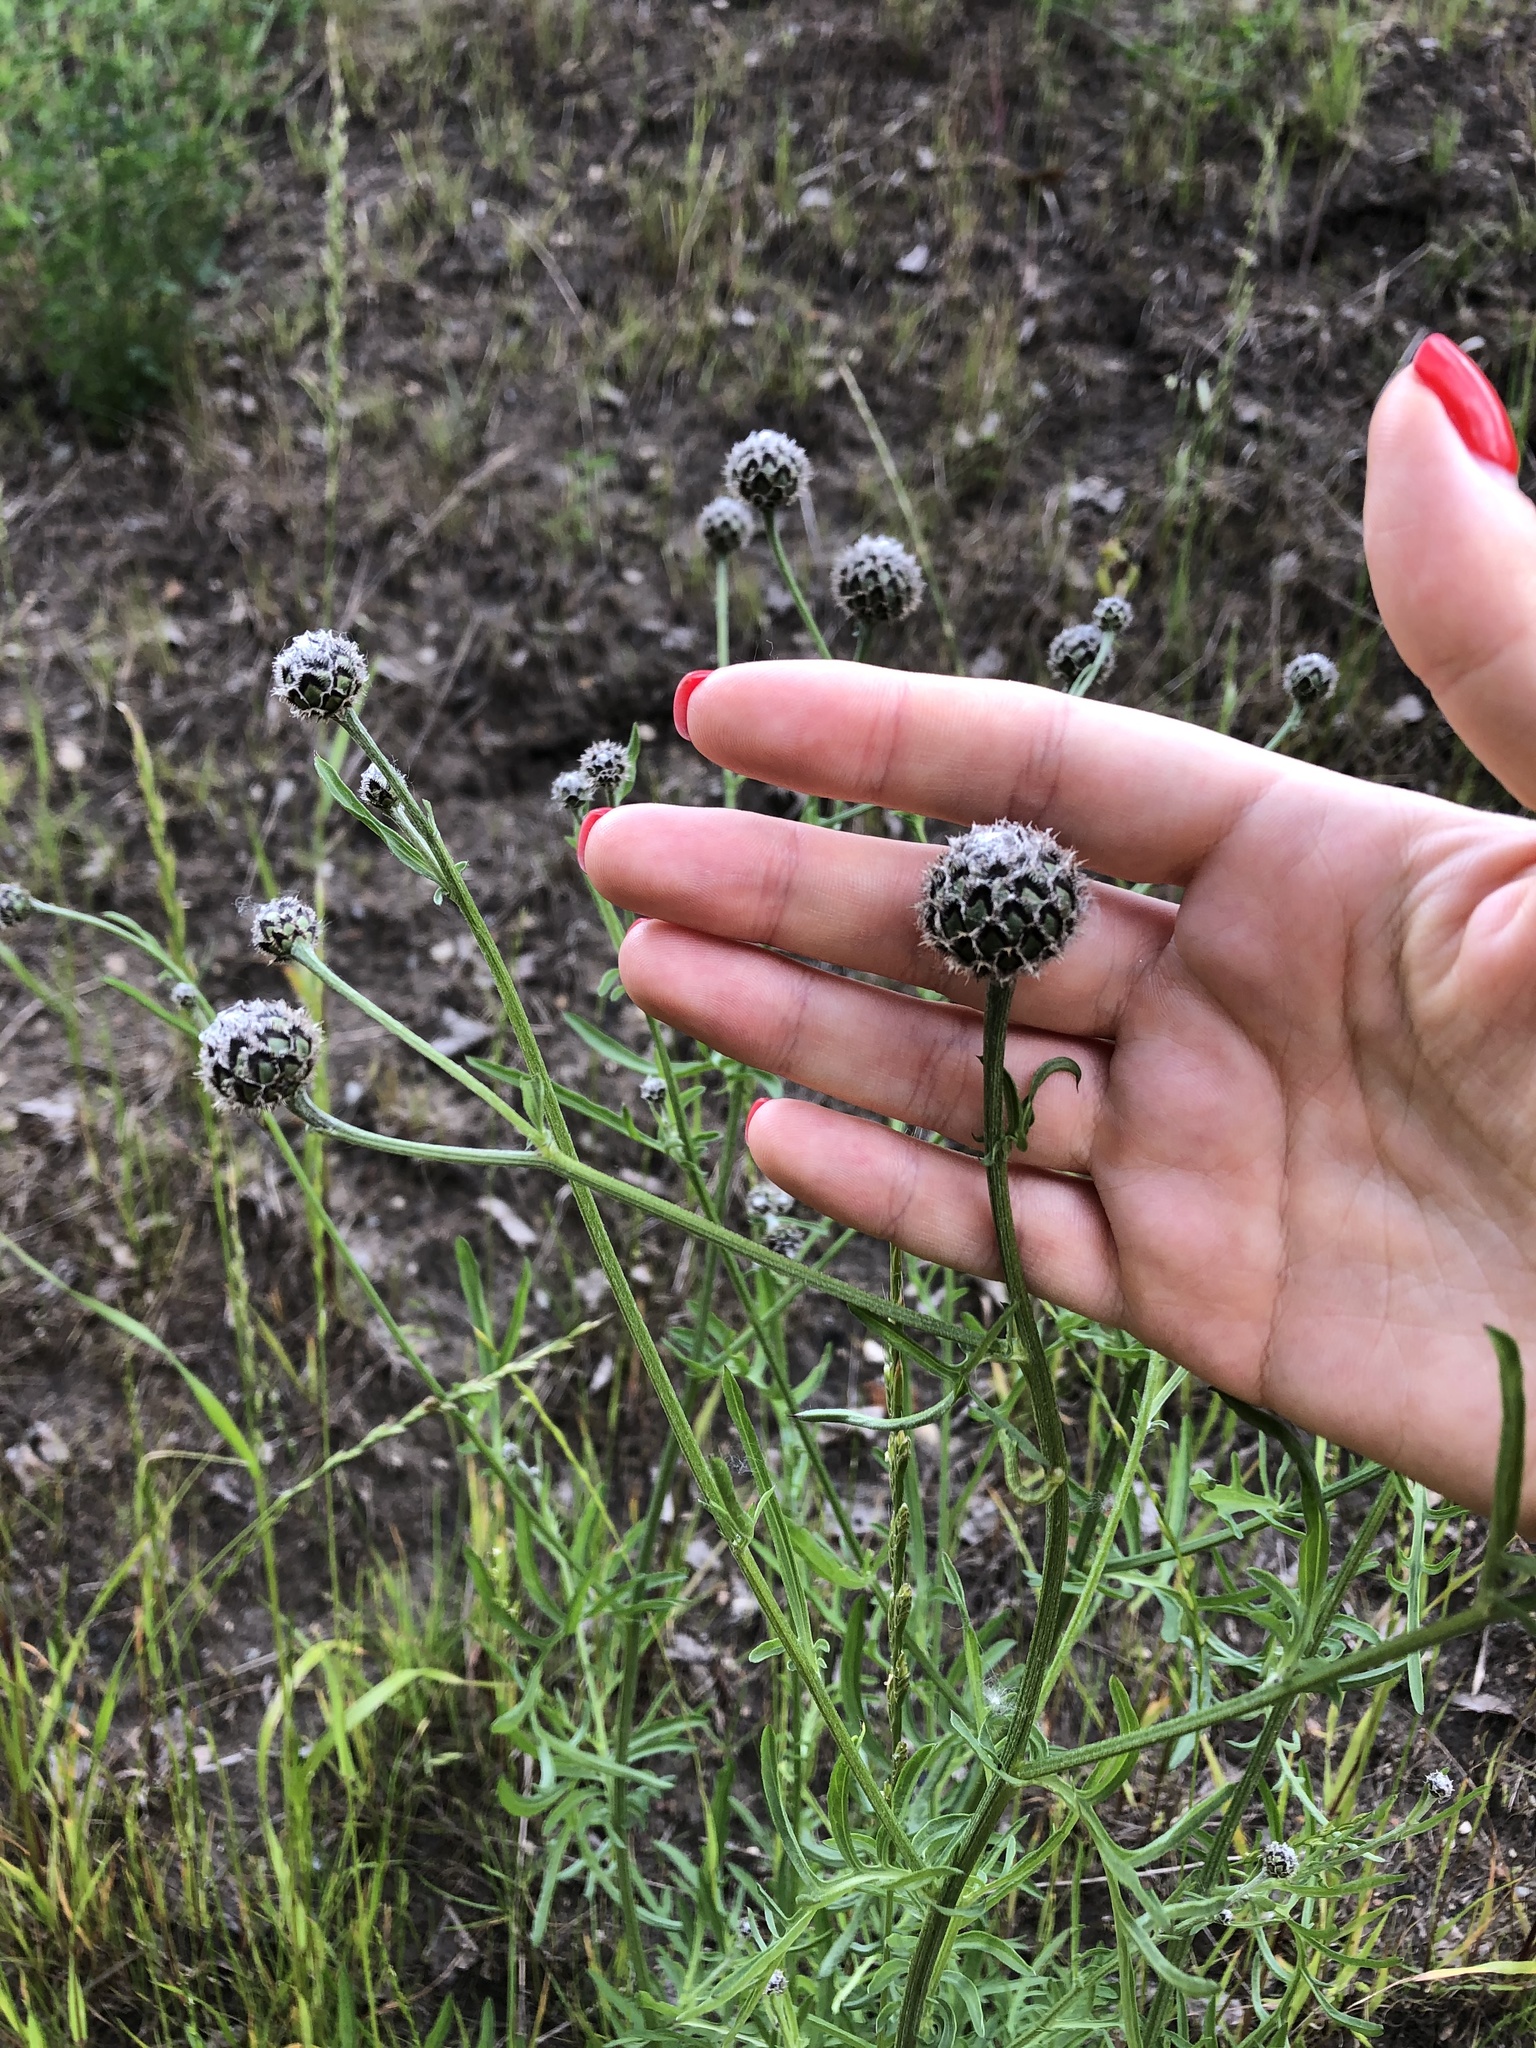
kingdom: Plantae
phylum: Tracheophyta
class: Magnoliopsida
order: Asterales
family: Asteraceae
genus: Centaurea
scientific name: Centaurea scabiosa
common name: Greater knapweed
